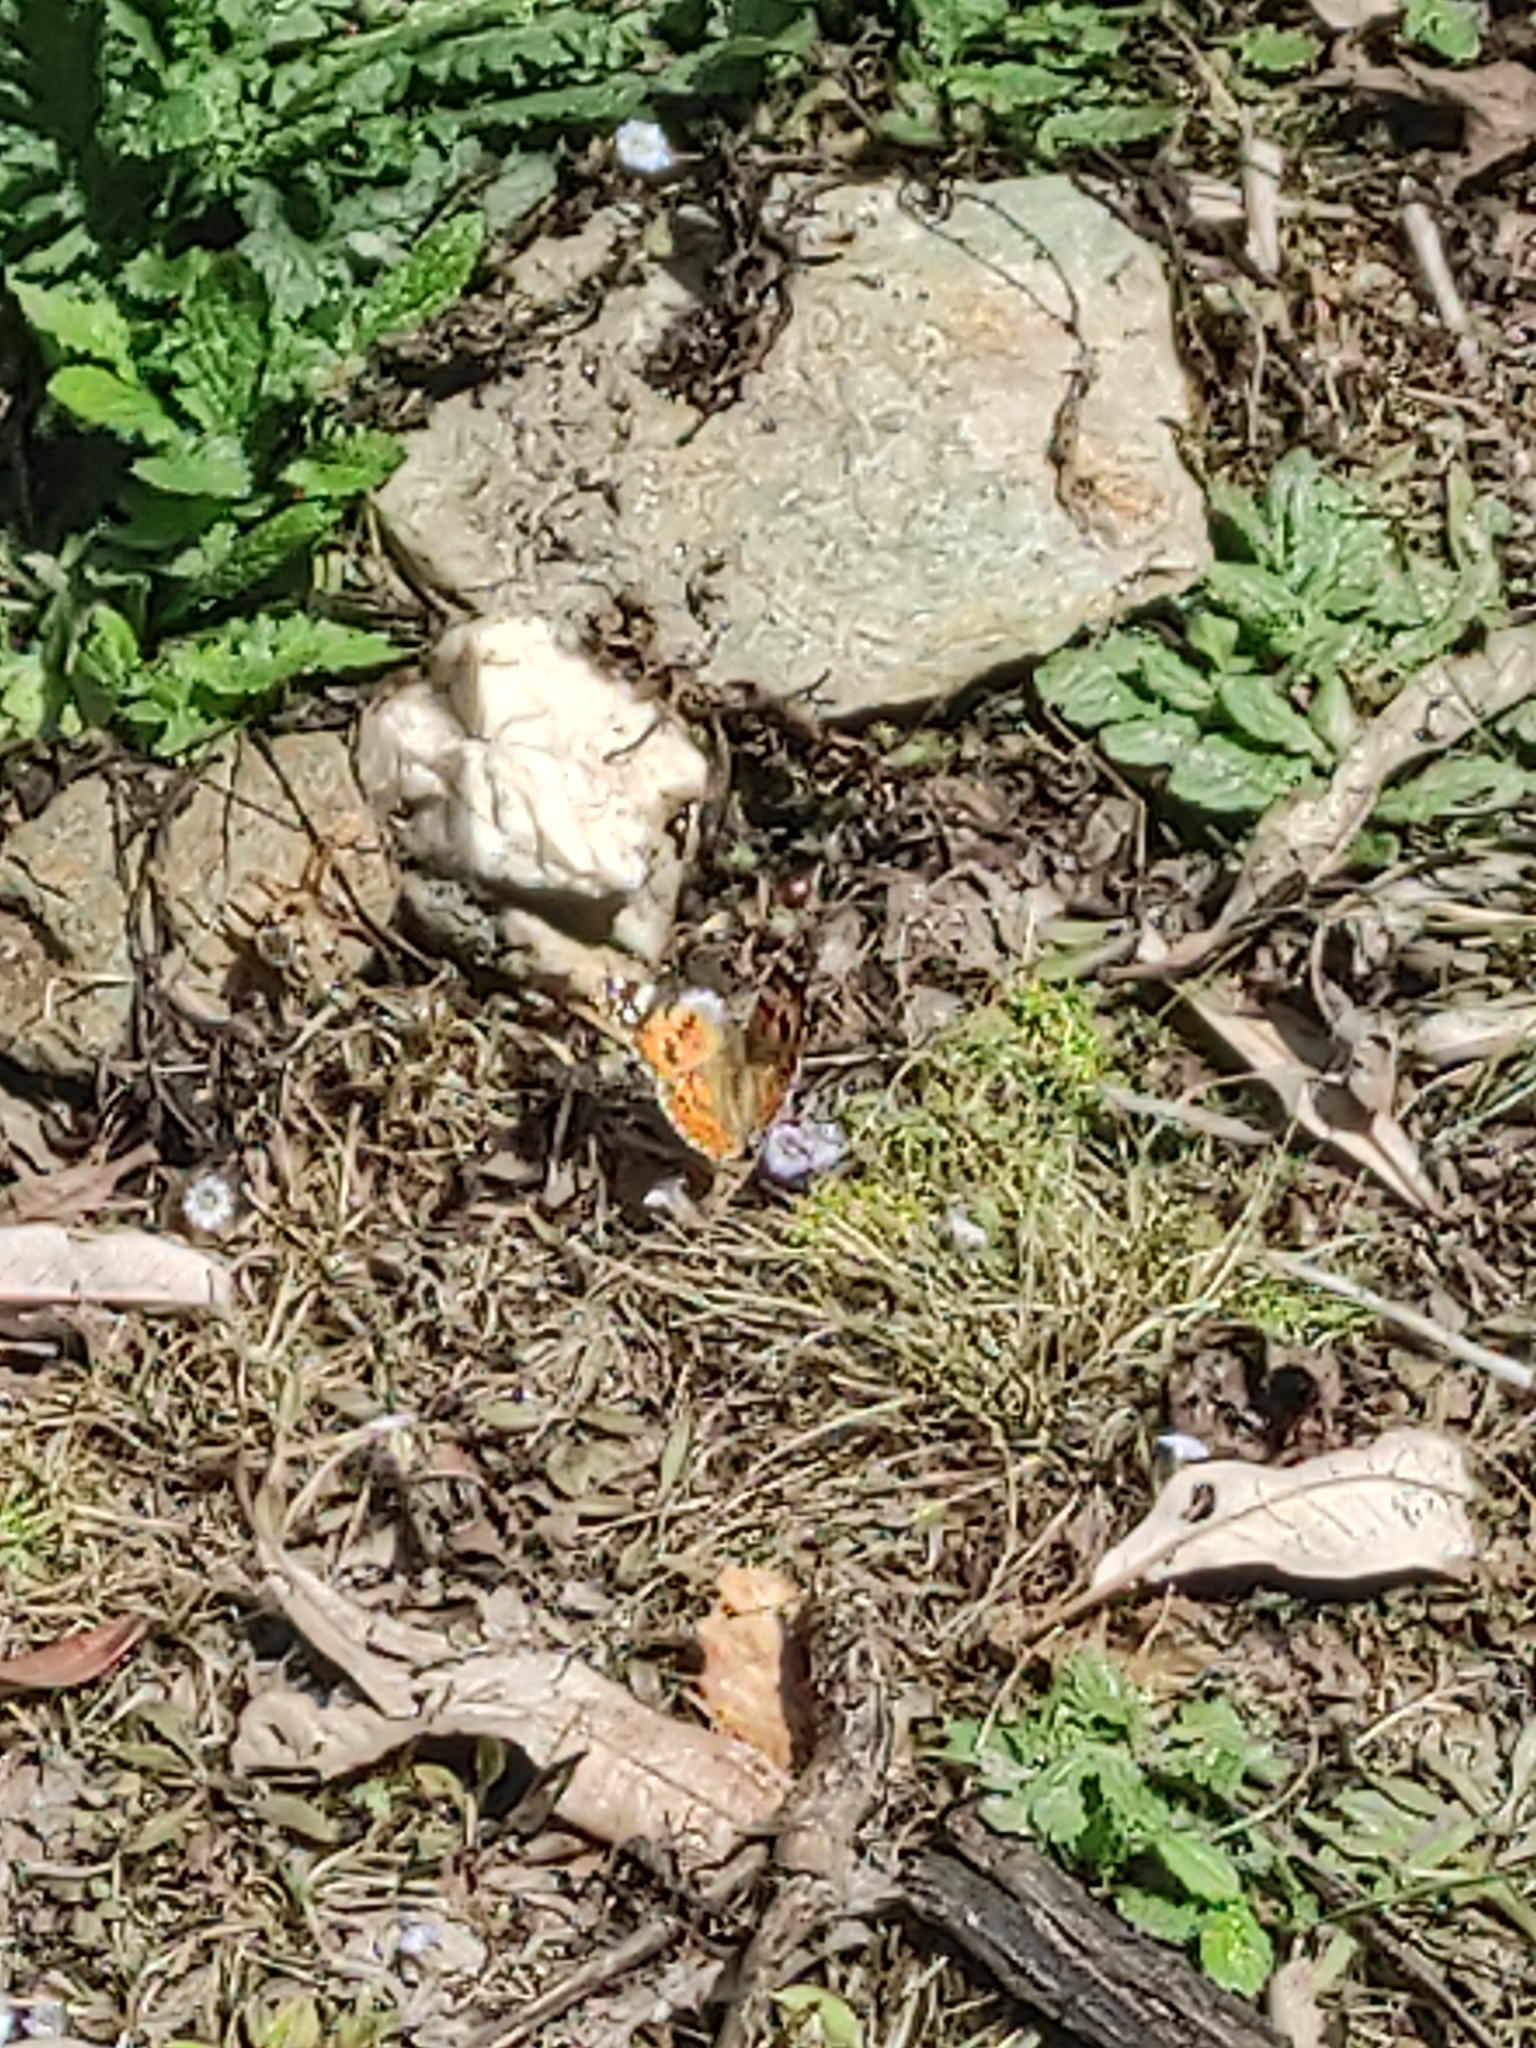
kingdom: Animalia
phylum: Arthropoda
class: Insecta
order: Lepidoptera
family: Nymphalidae
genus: Vanessa
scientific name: Vanessa cardui
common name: Painted lady
